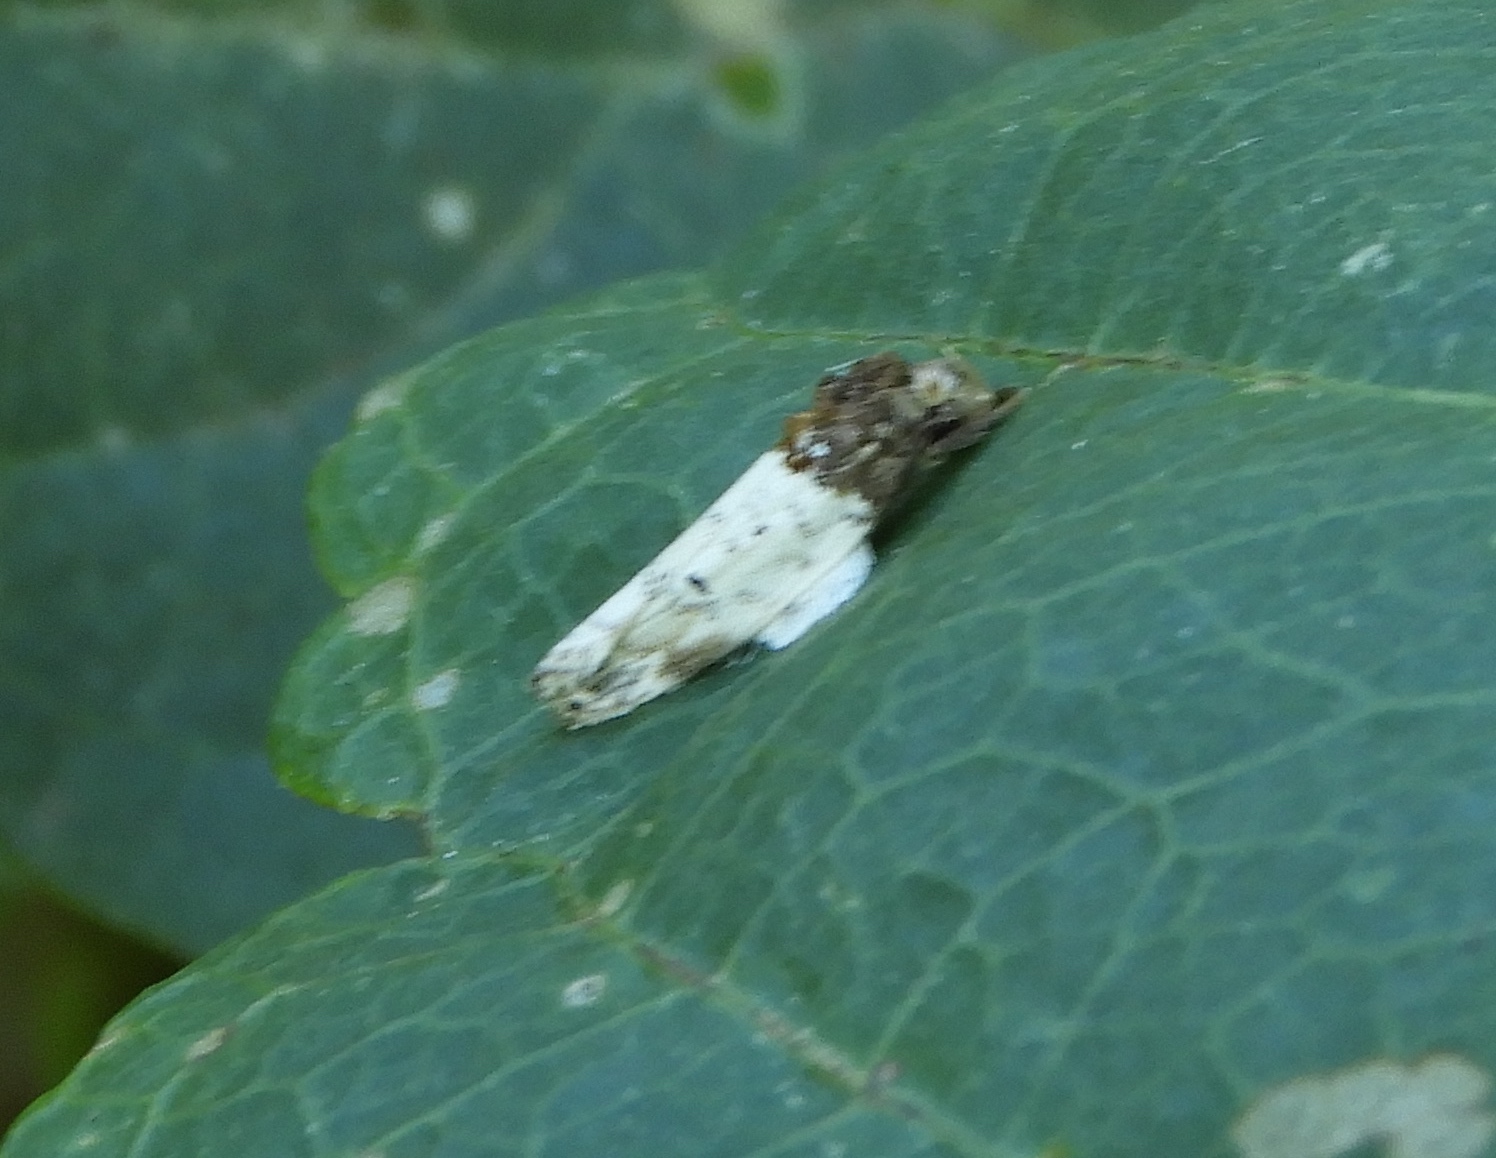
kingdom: Animalia
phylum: Arthropoda
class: Insecta
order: Lepidoptera
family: Depressariidae
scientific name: Depressariidae
